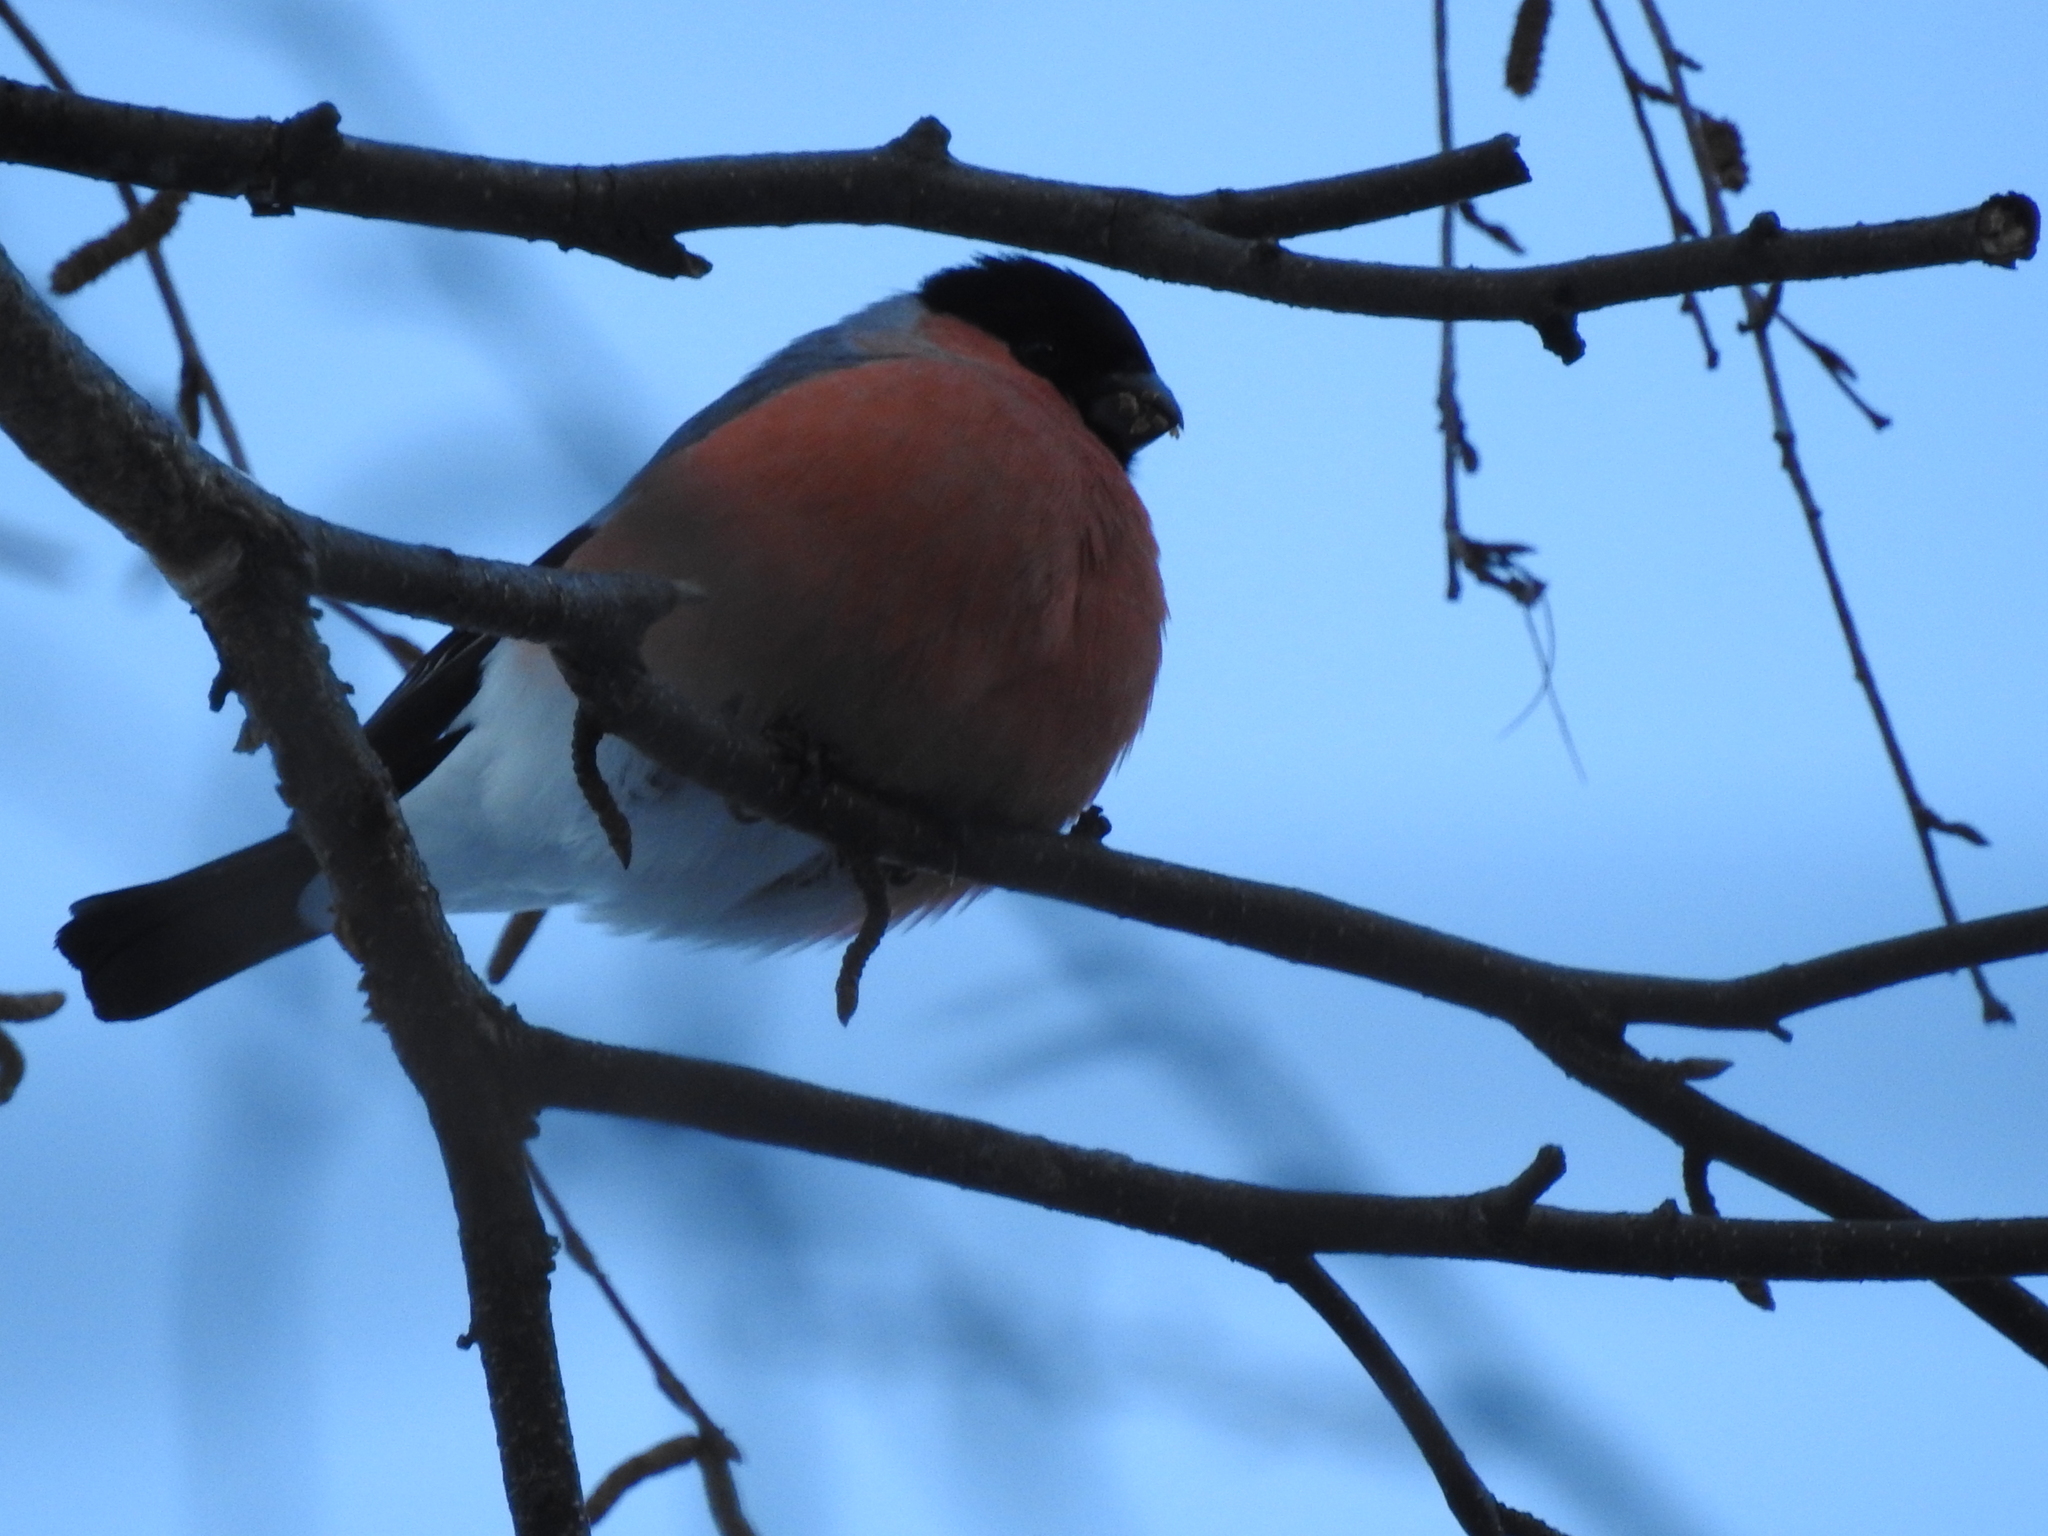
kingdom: Animalia
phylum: Chordata
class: Aves
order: Passeriformes
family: Fringillidae
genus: Pyrrhula
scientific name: Pyrrhula pyrrhula
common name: Eurasian bullfinch
